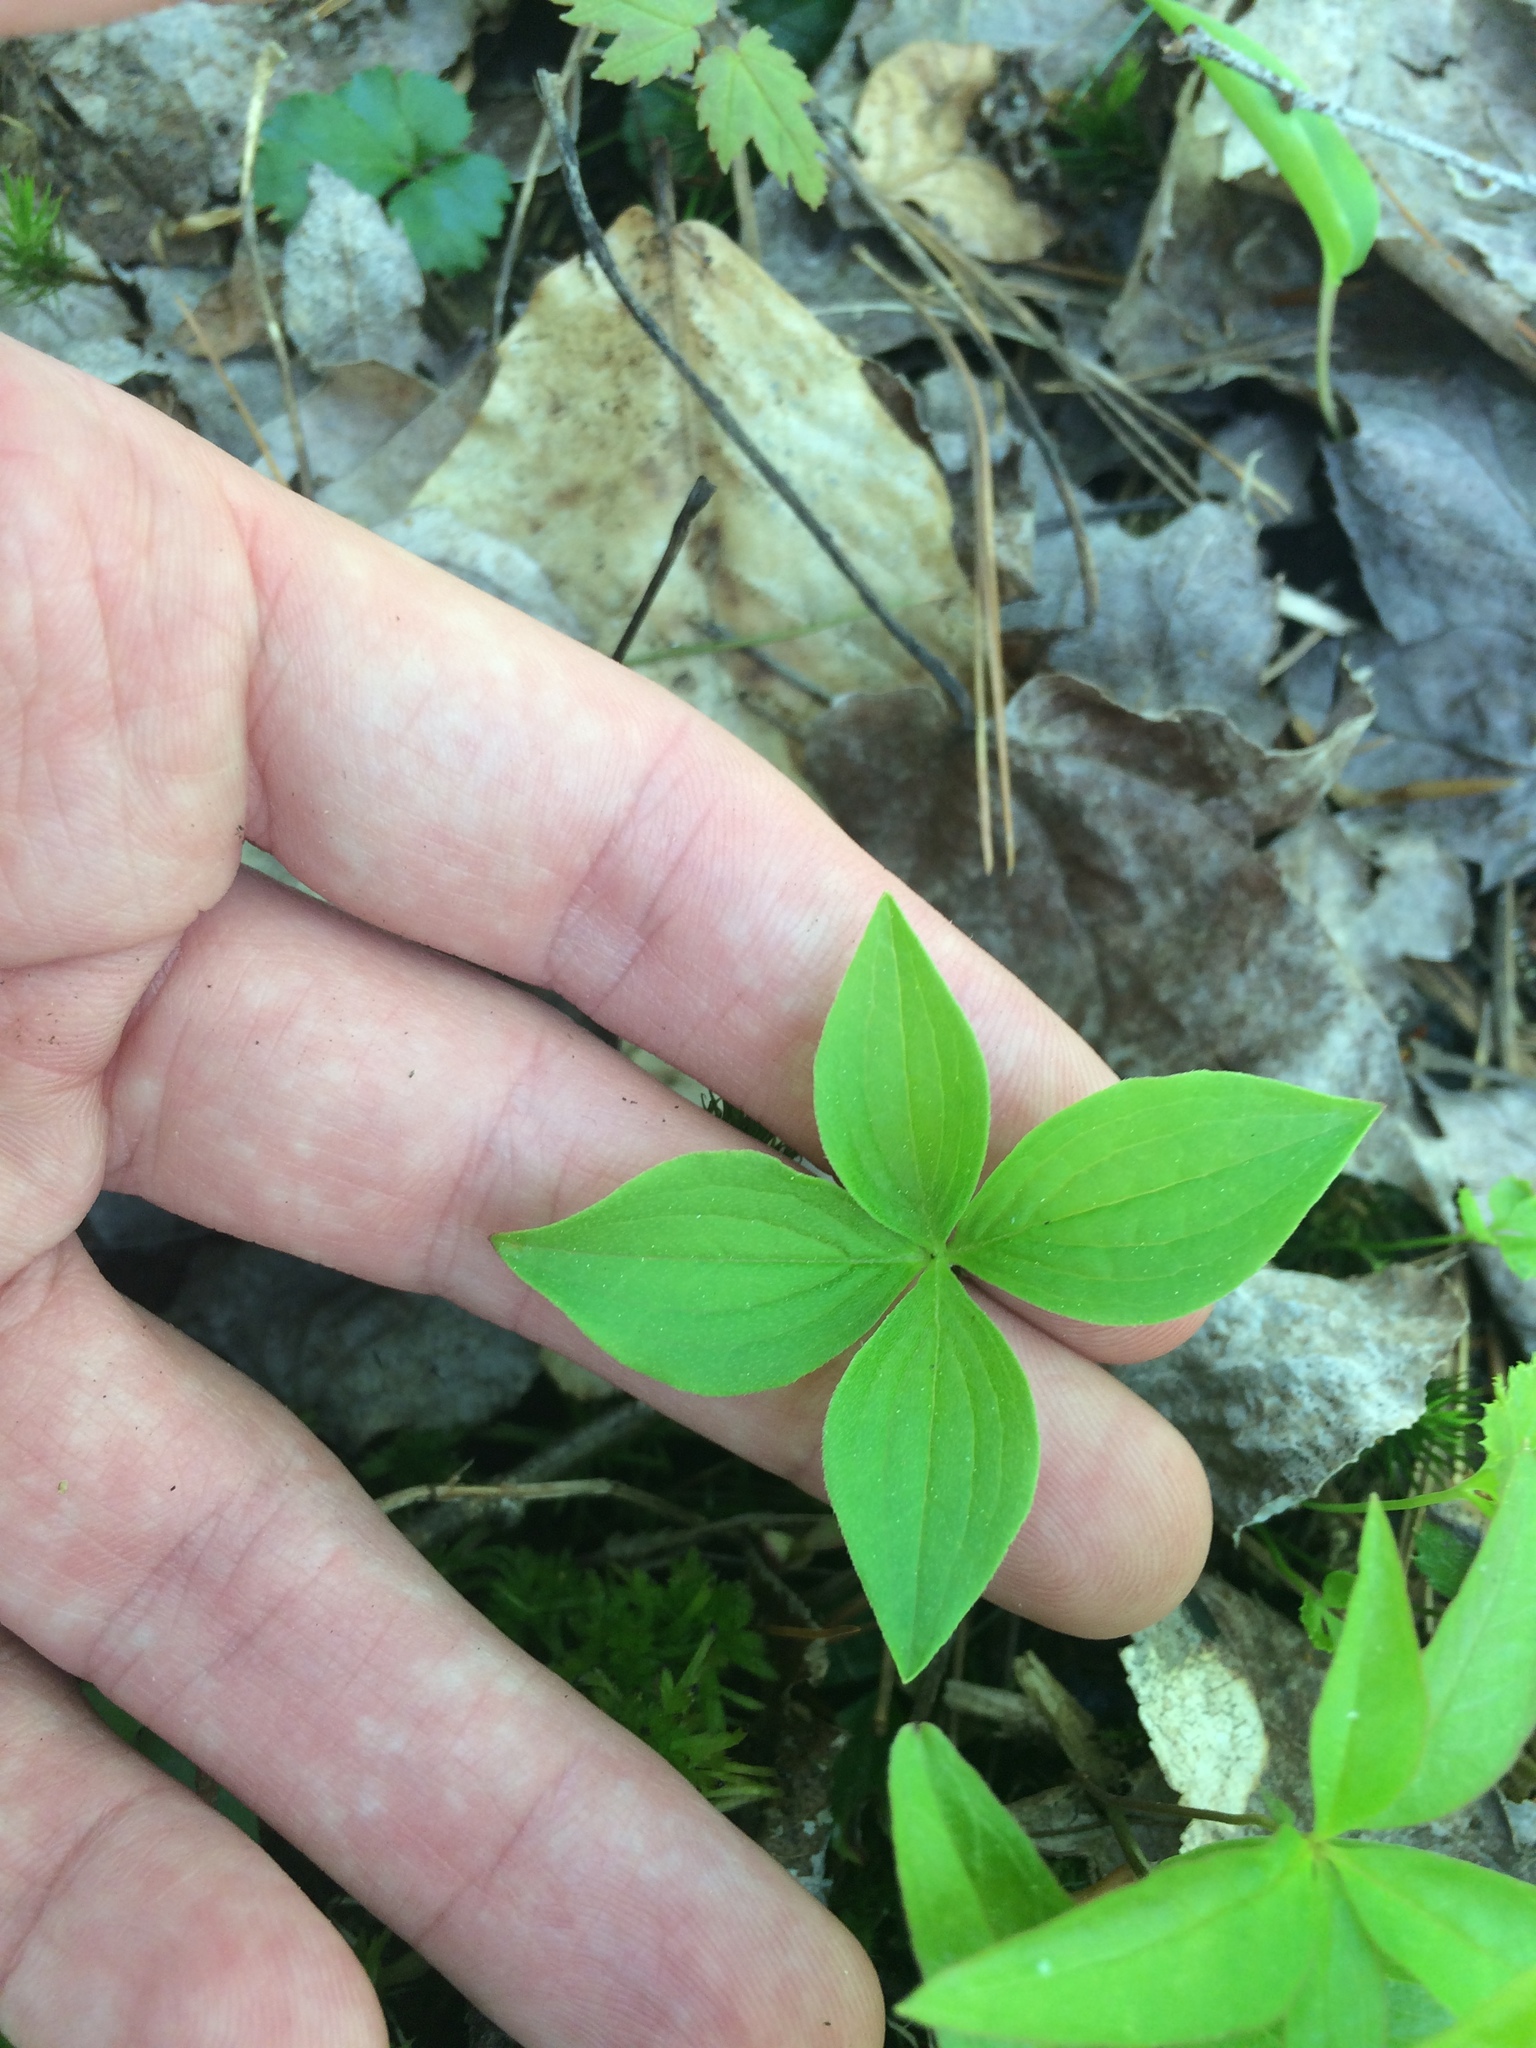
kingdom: Plantae
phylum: Tracheophyta
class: Magnoliopsida
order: Cornales
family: Cornaceae
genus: Cornus
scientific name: Cornus canadensis
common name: Creeping dogwood
